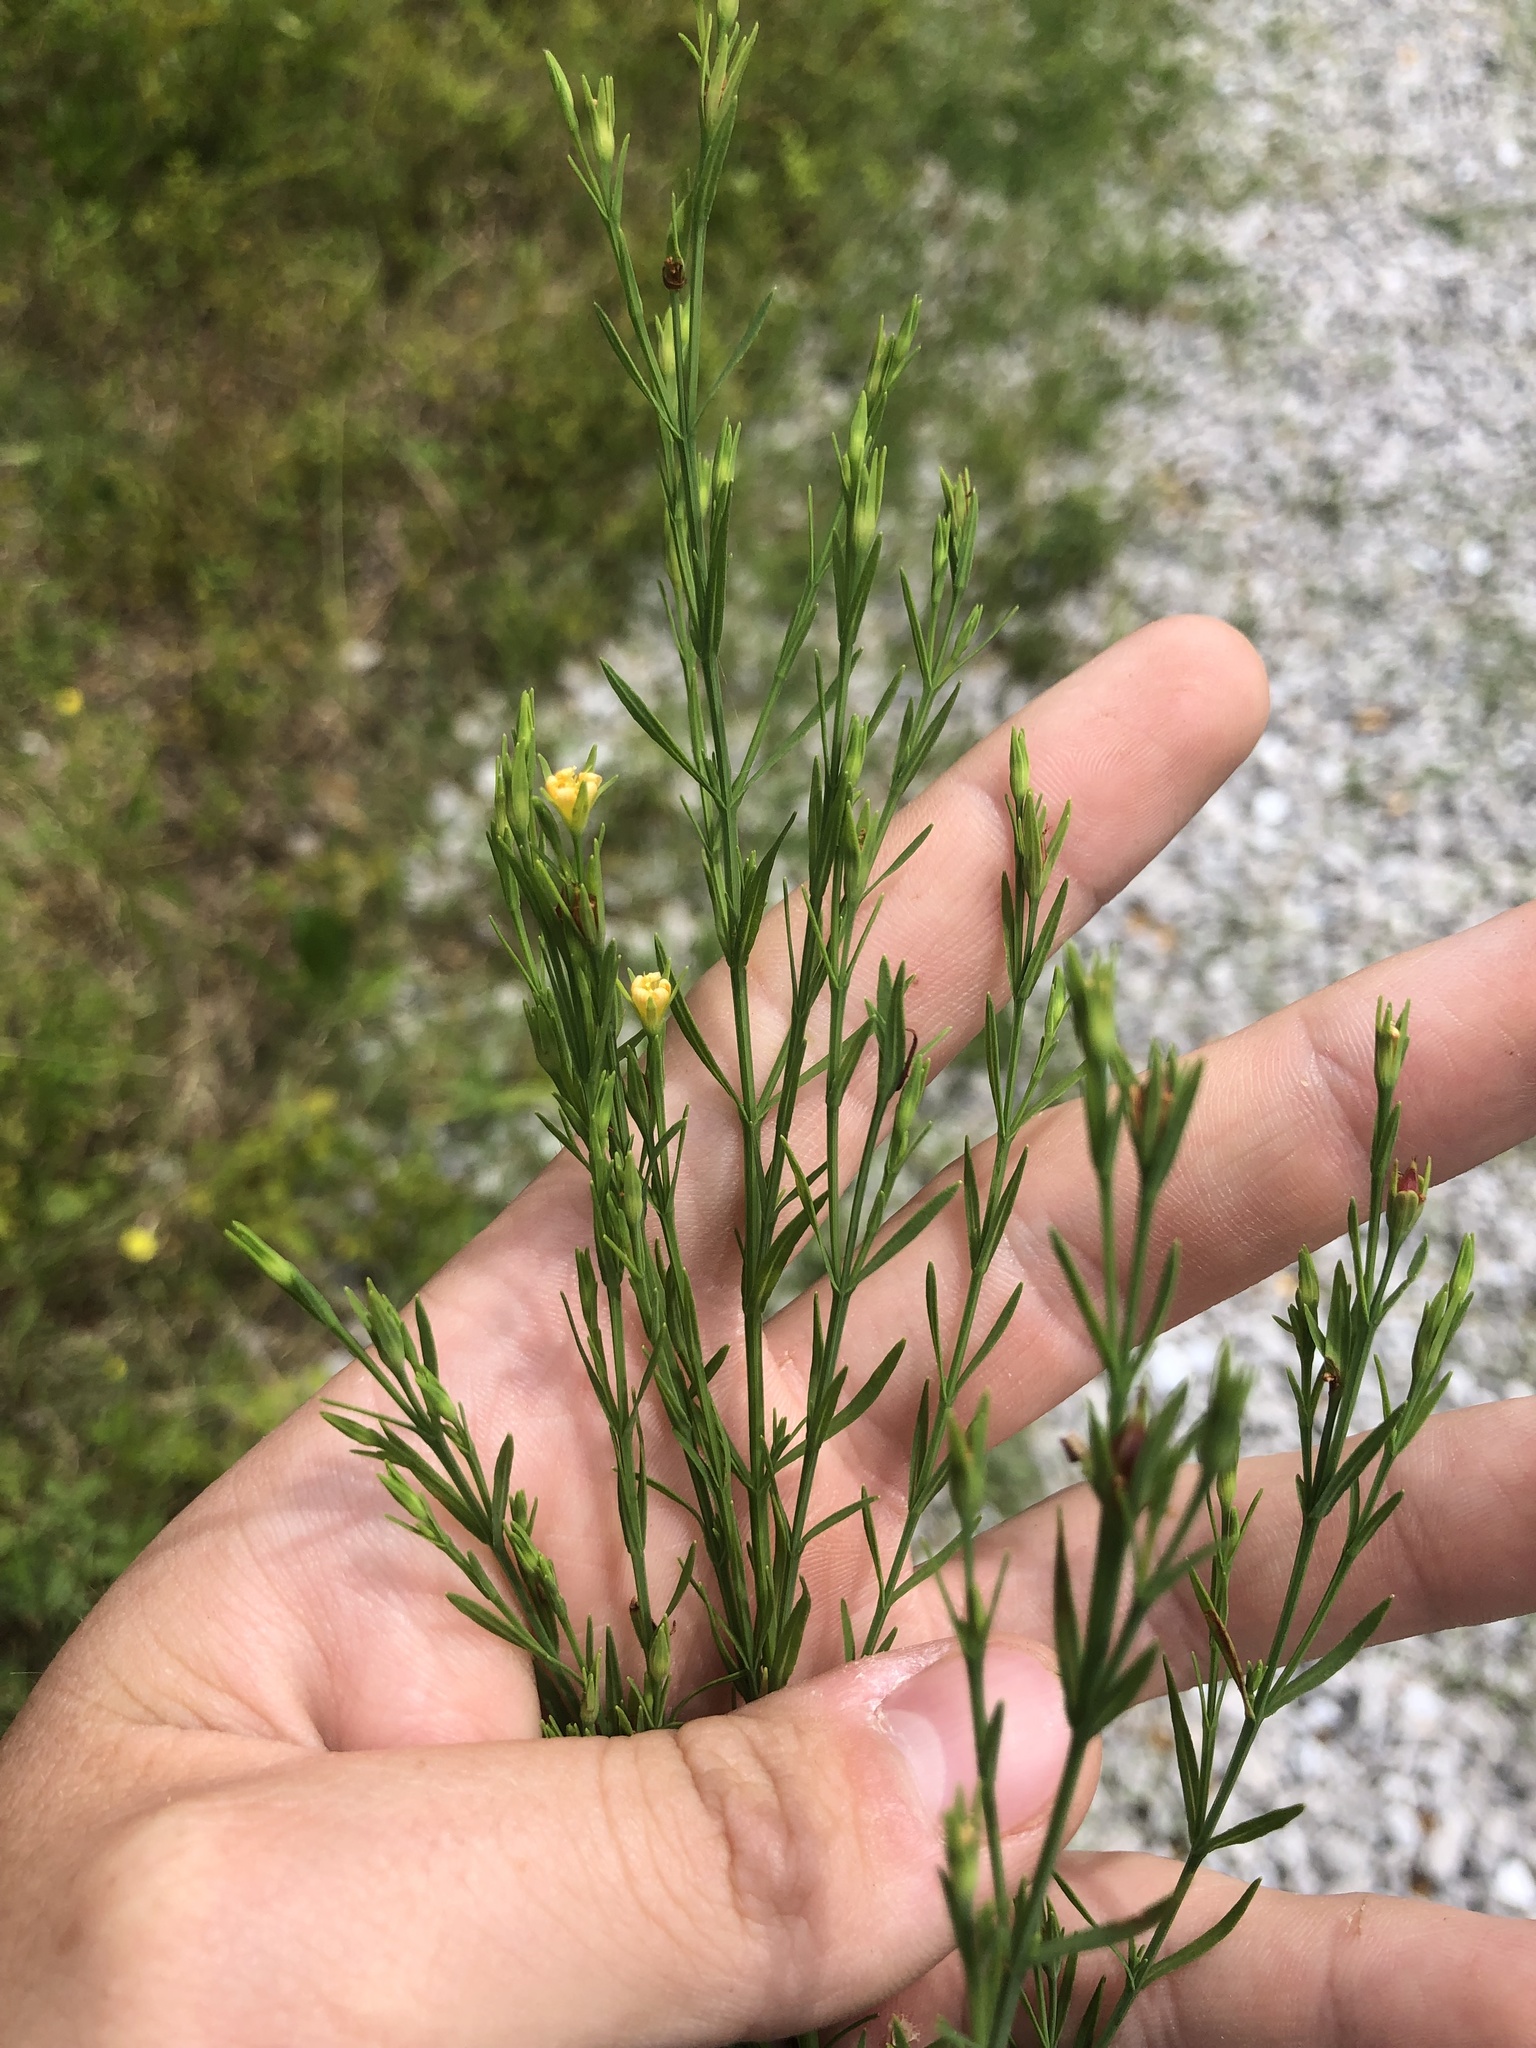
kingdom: Plantae
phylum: Tracheophyta
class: Magnoliopsida
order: Malpighiales
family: Hypericaceae
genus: Hypericum
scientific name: Hypericum drummondii
